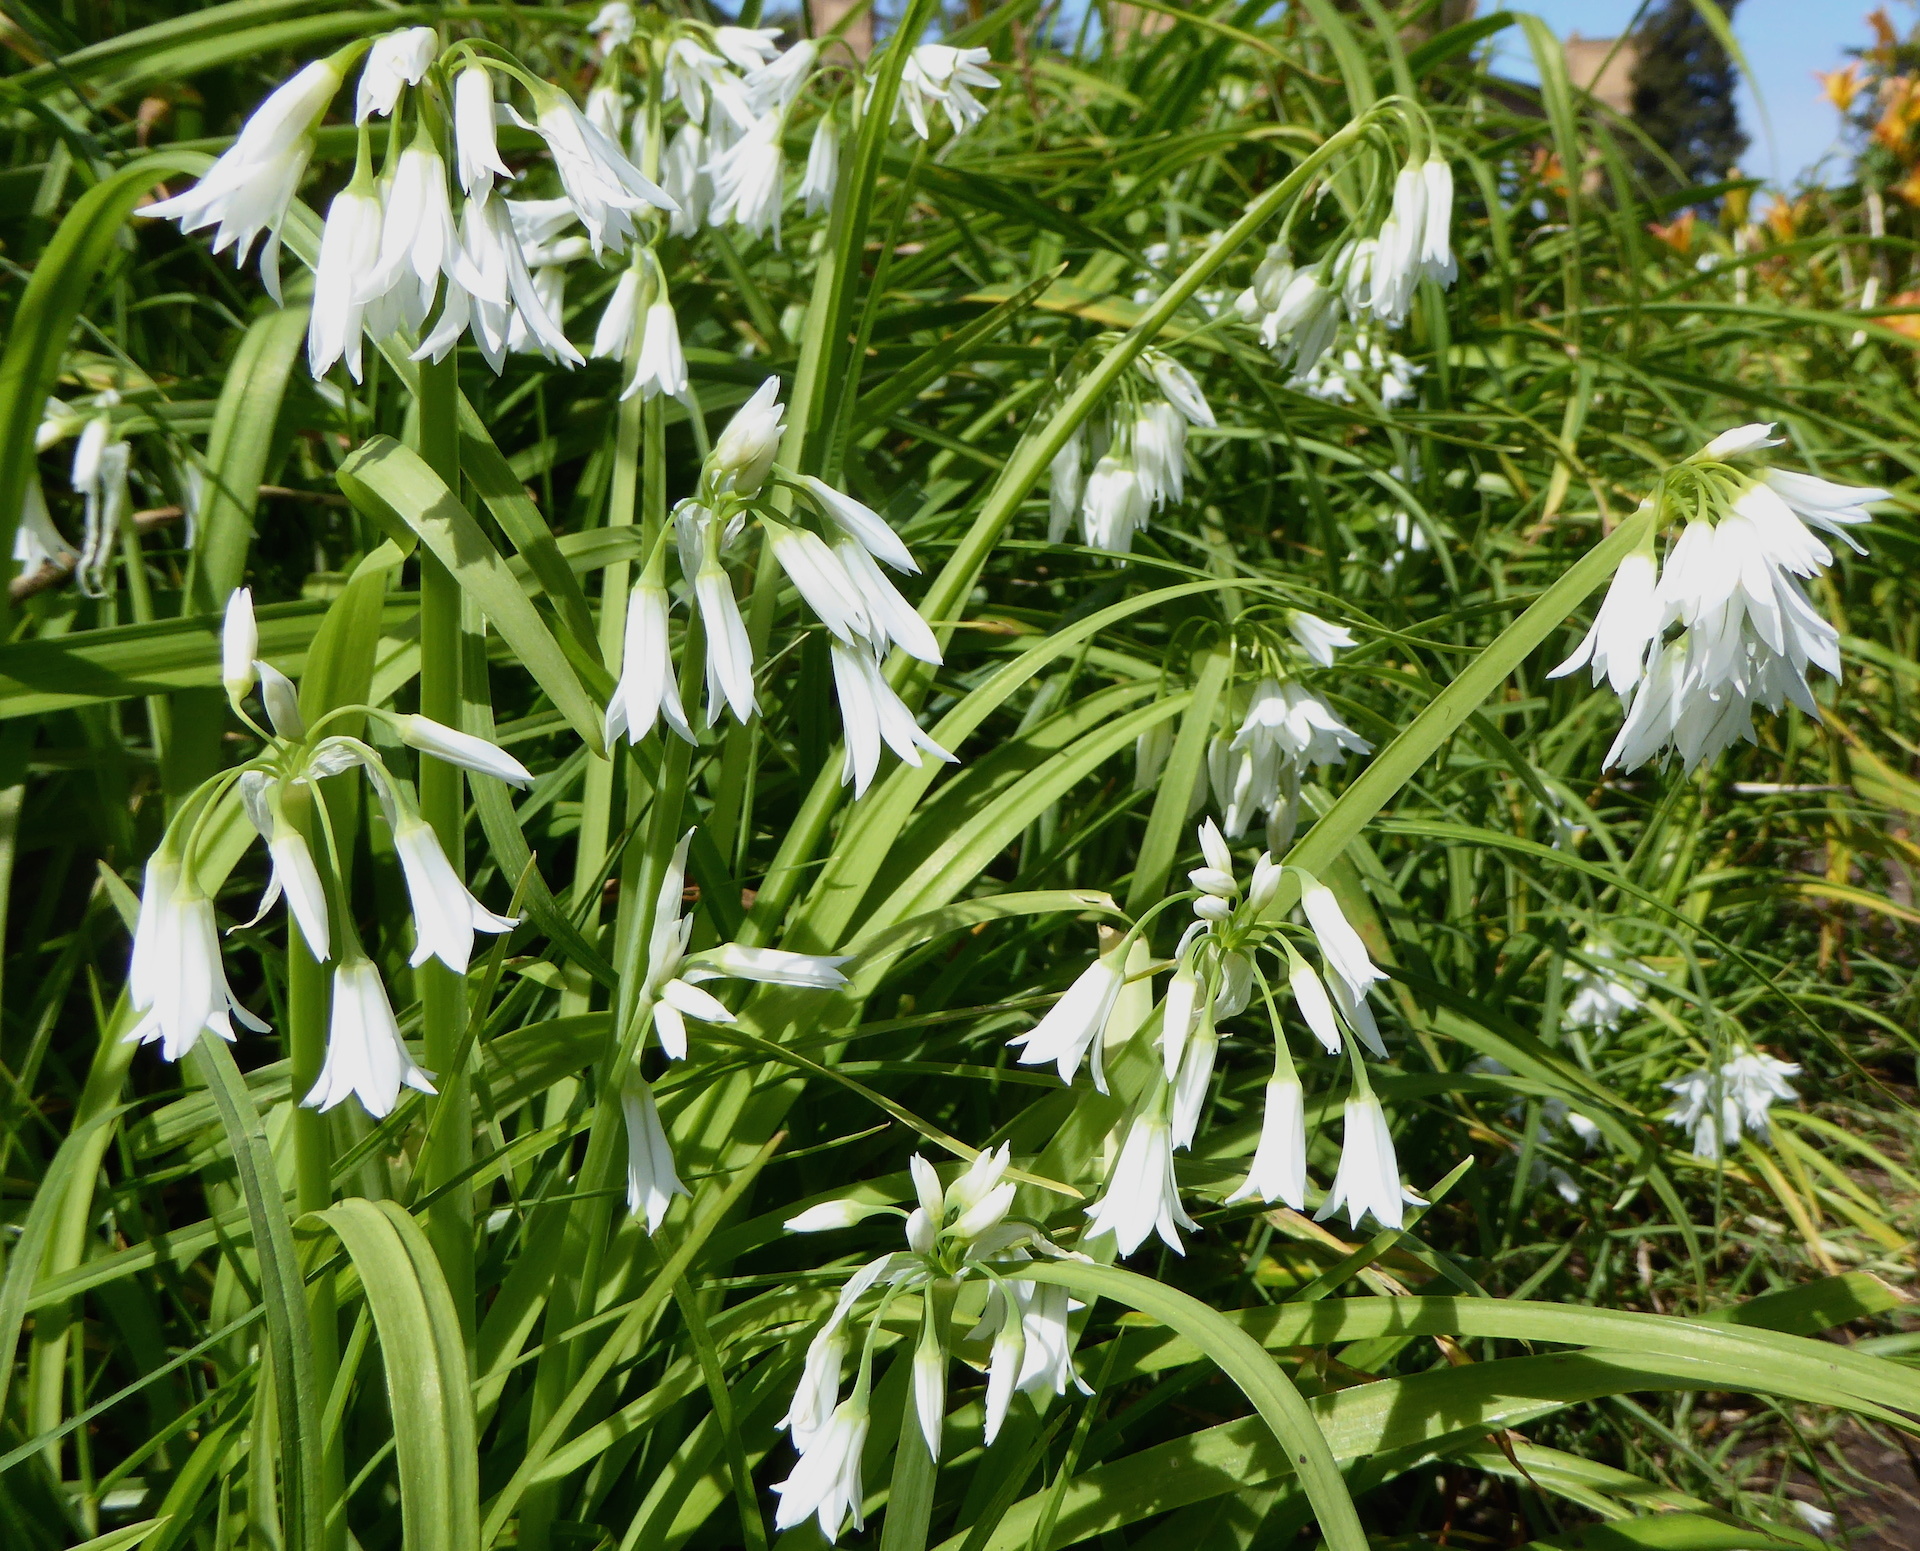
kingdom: Plantae
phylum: Tracheophyta
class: Liliopsida
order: Asparagales
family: Amaryllidaceae
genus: Allium
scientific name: Allium triquetrum
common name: Three-cornered garlic
